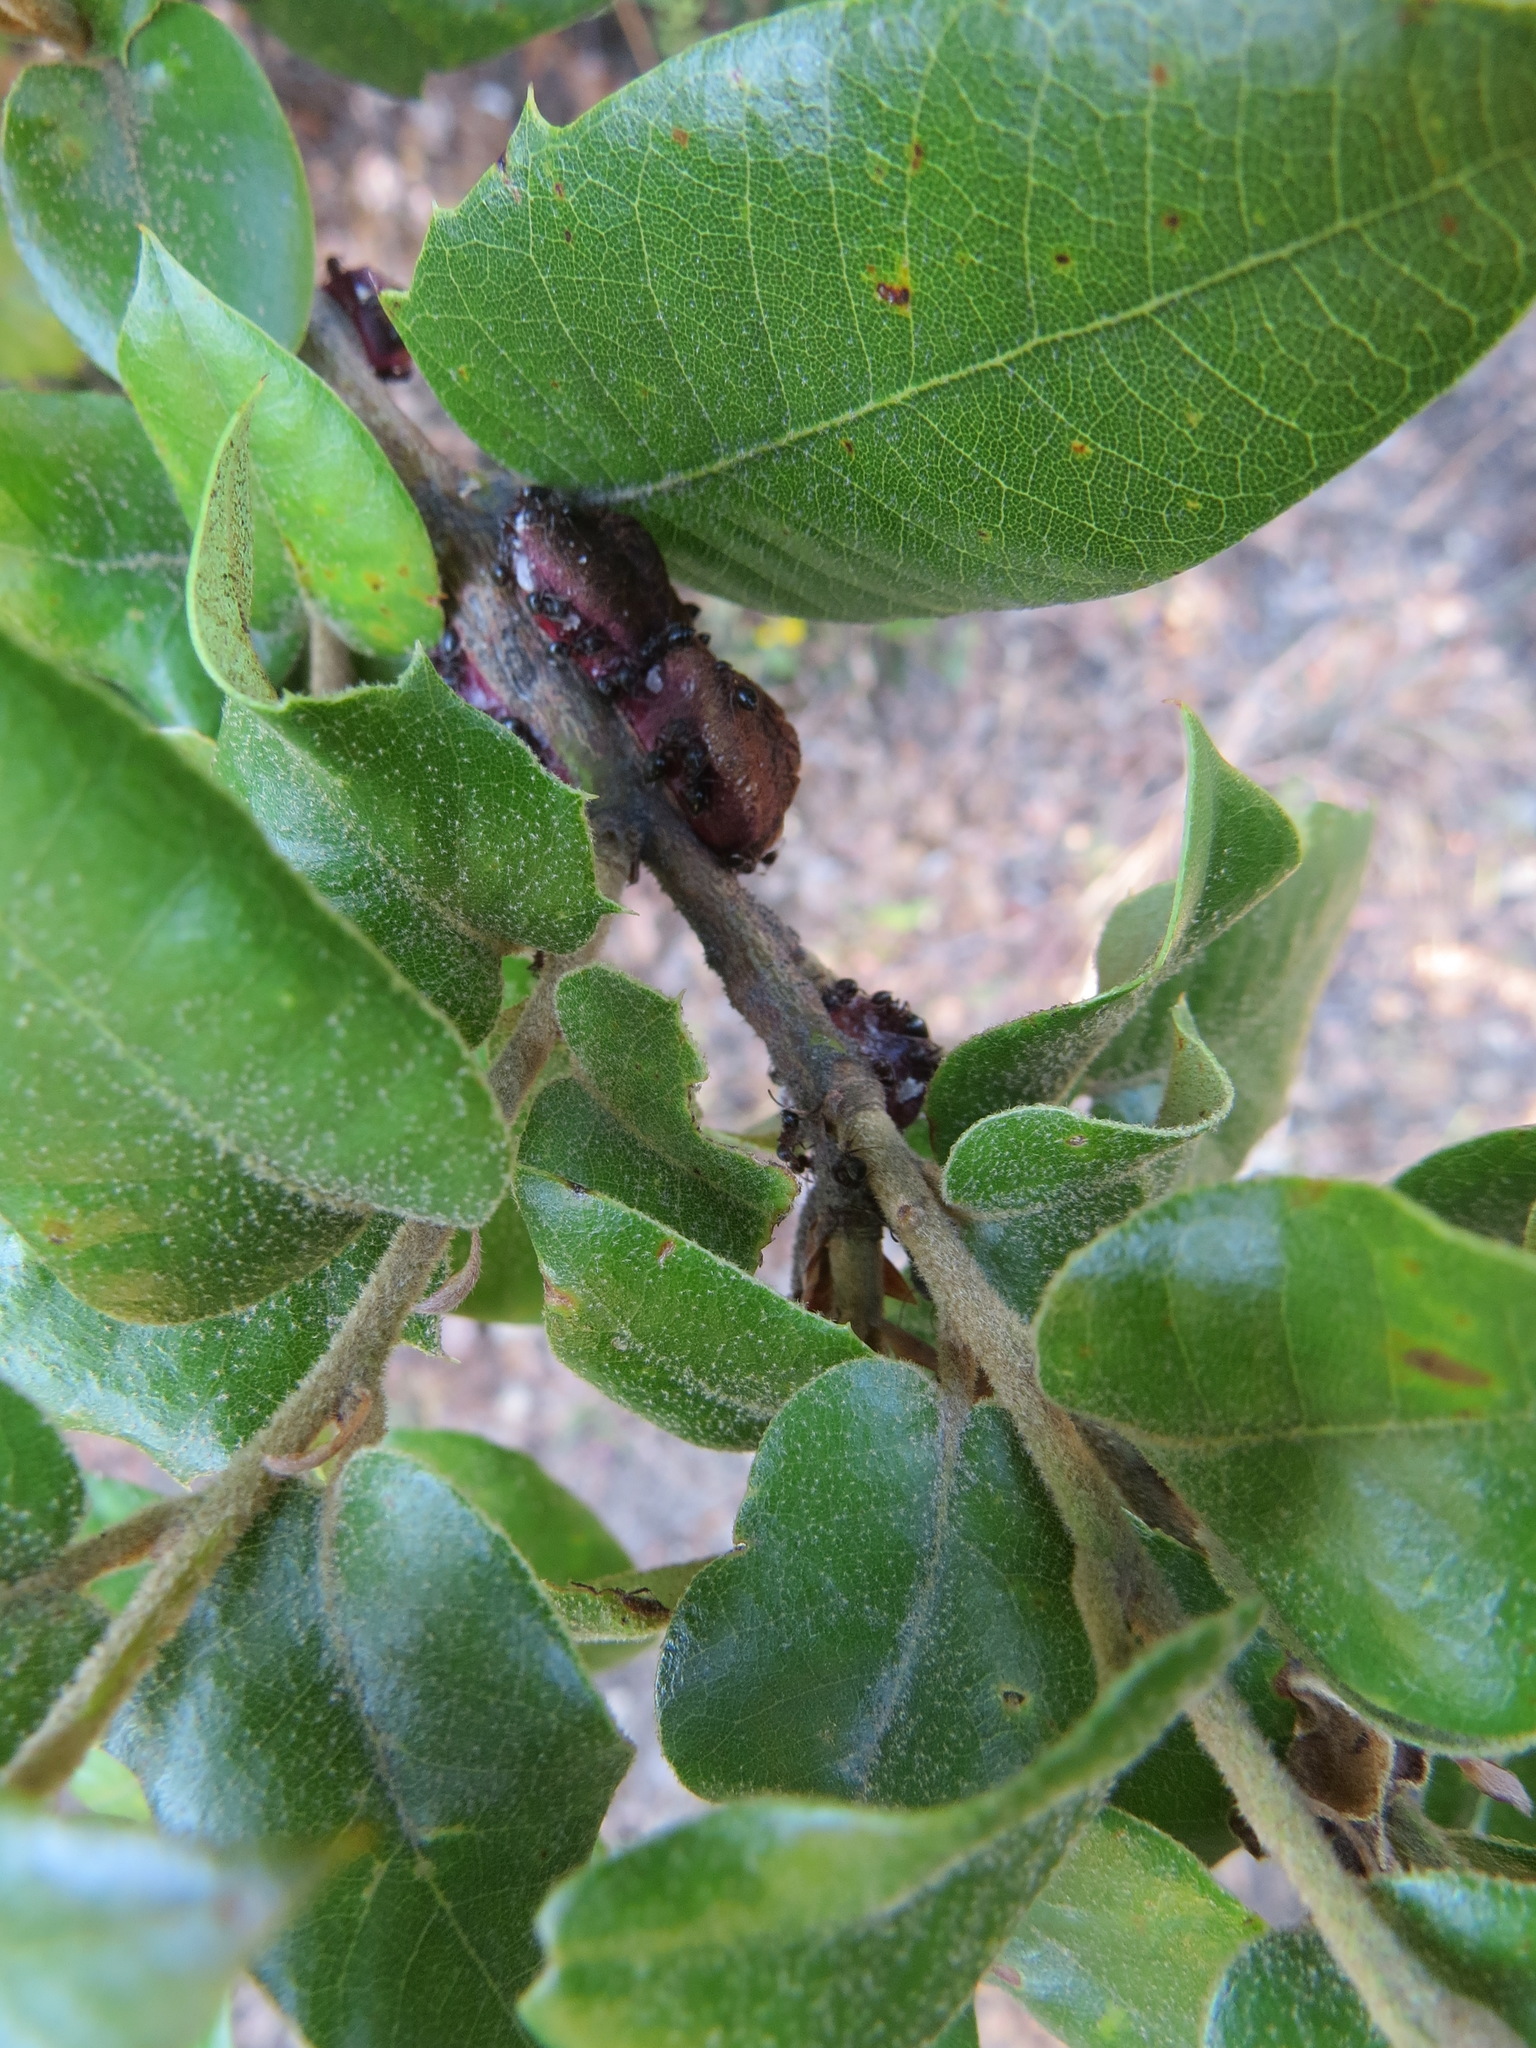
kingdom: Animalia
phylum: Arthropoda
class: Insecta
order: Hymenoptera
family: Cynipidae
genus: Disholandricus
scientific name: Disholandricus
